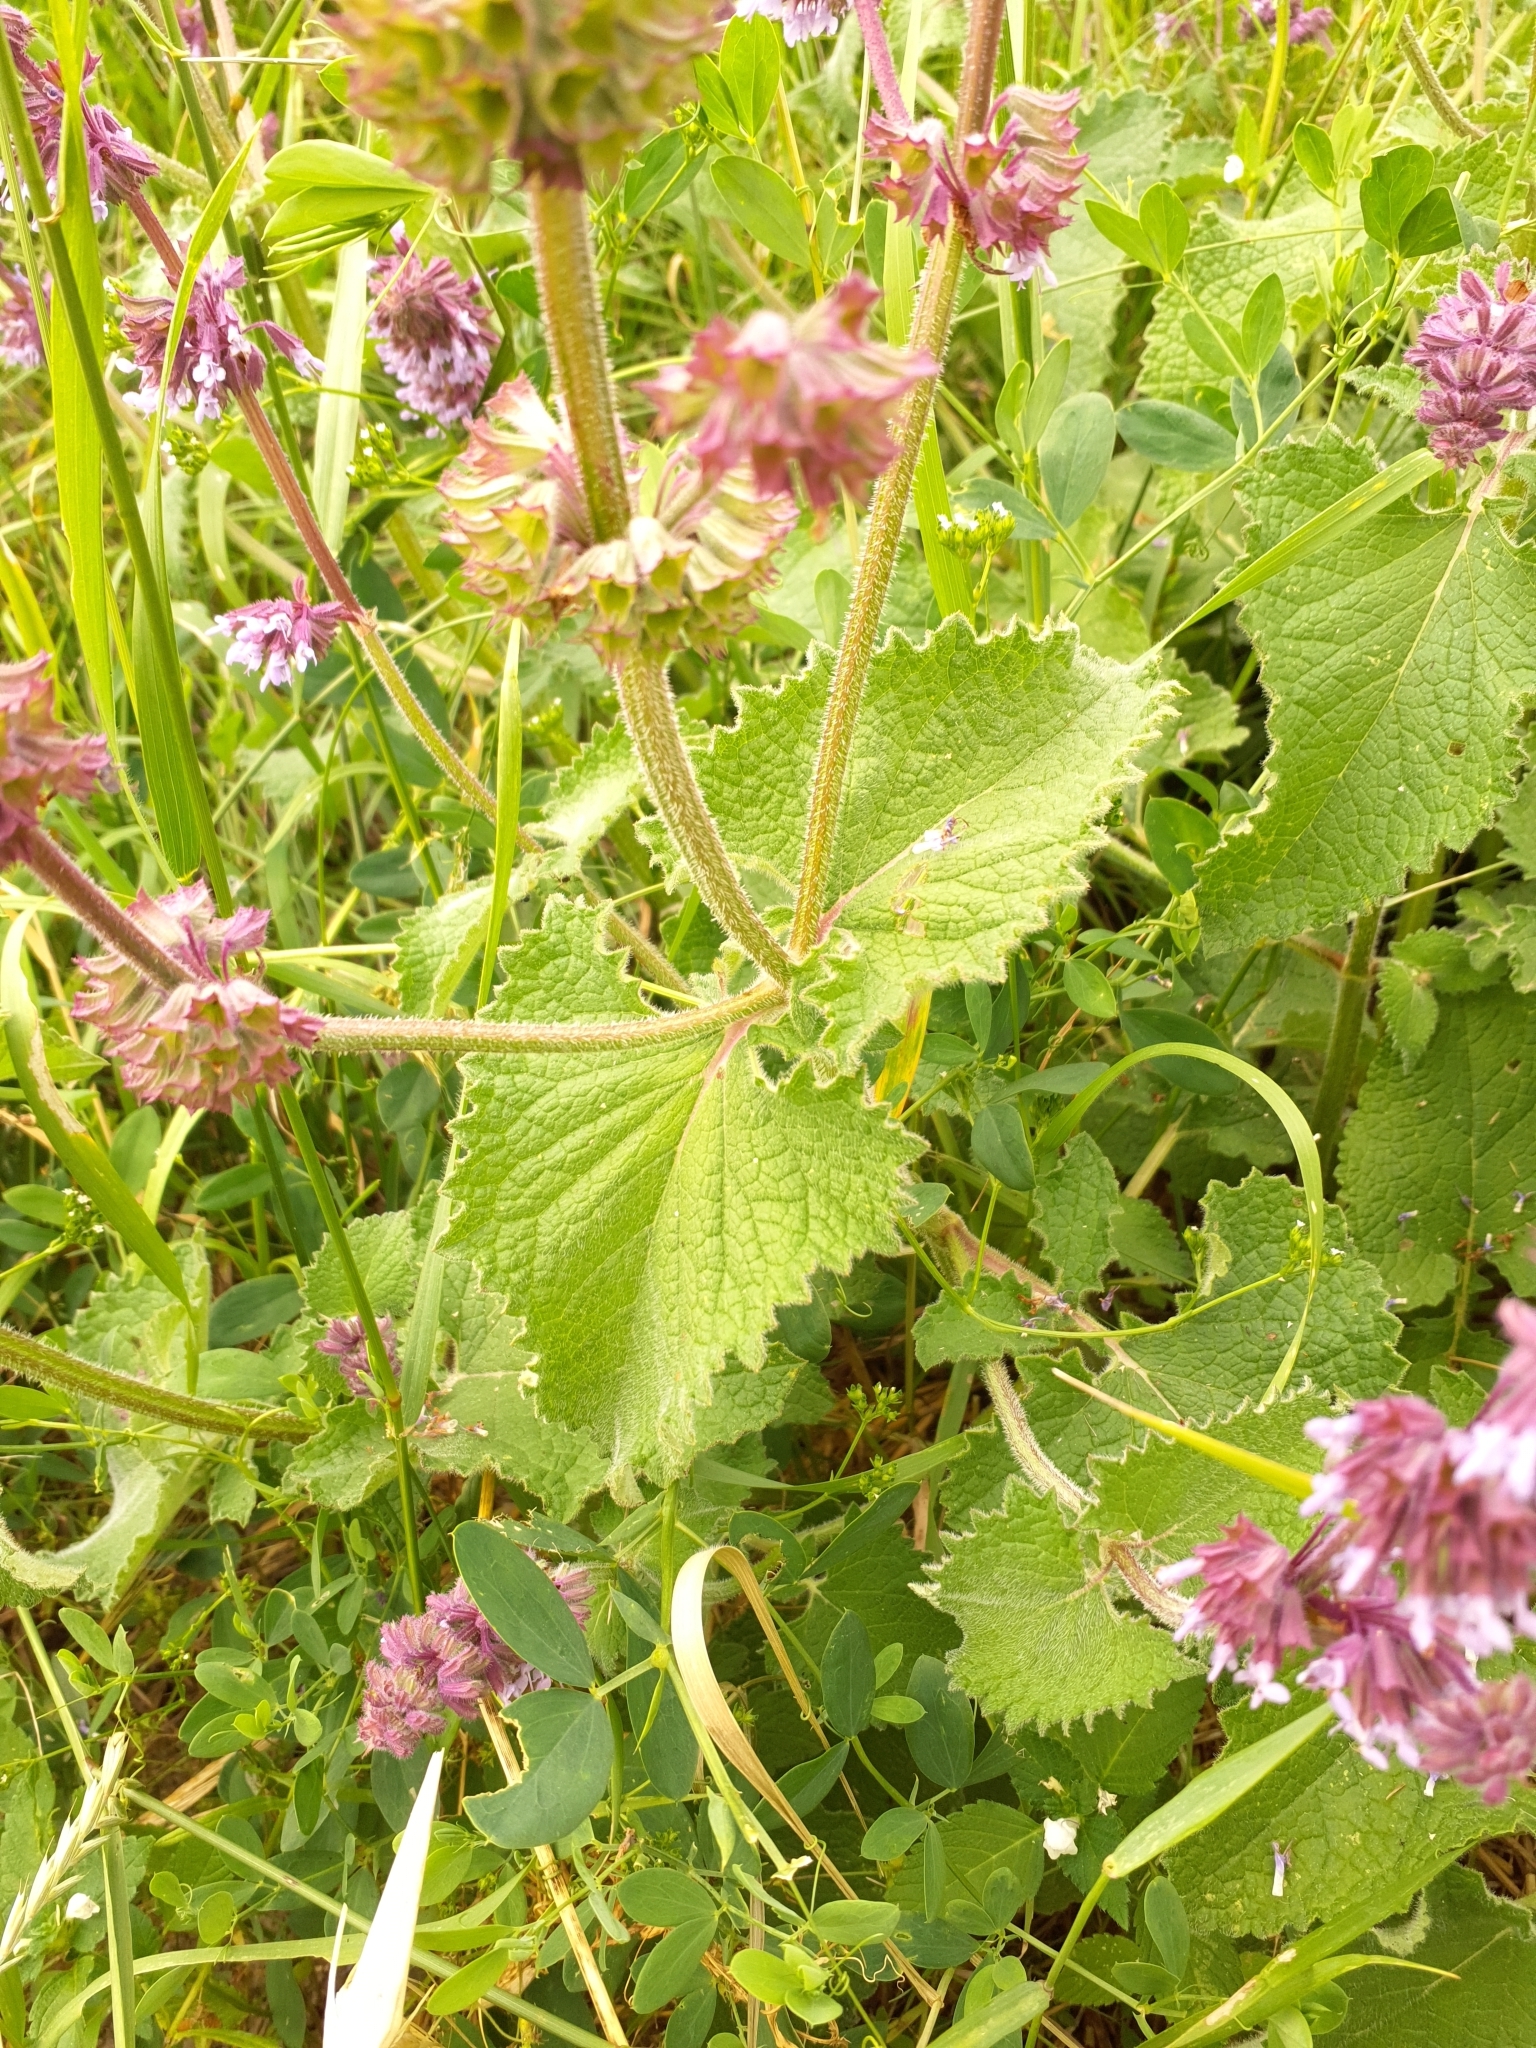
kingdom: Plantae
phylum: Tracheophyta
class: Magnoliopsida
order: Lamiales
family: Lamiaceae
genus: Salvia
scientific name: Salvia verticillata
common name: Whorled clary
